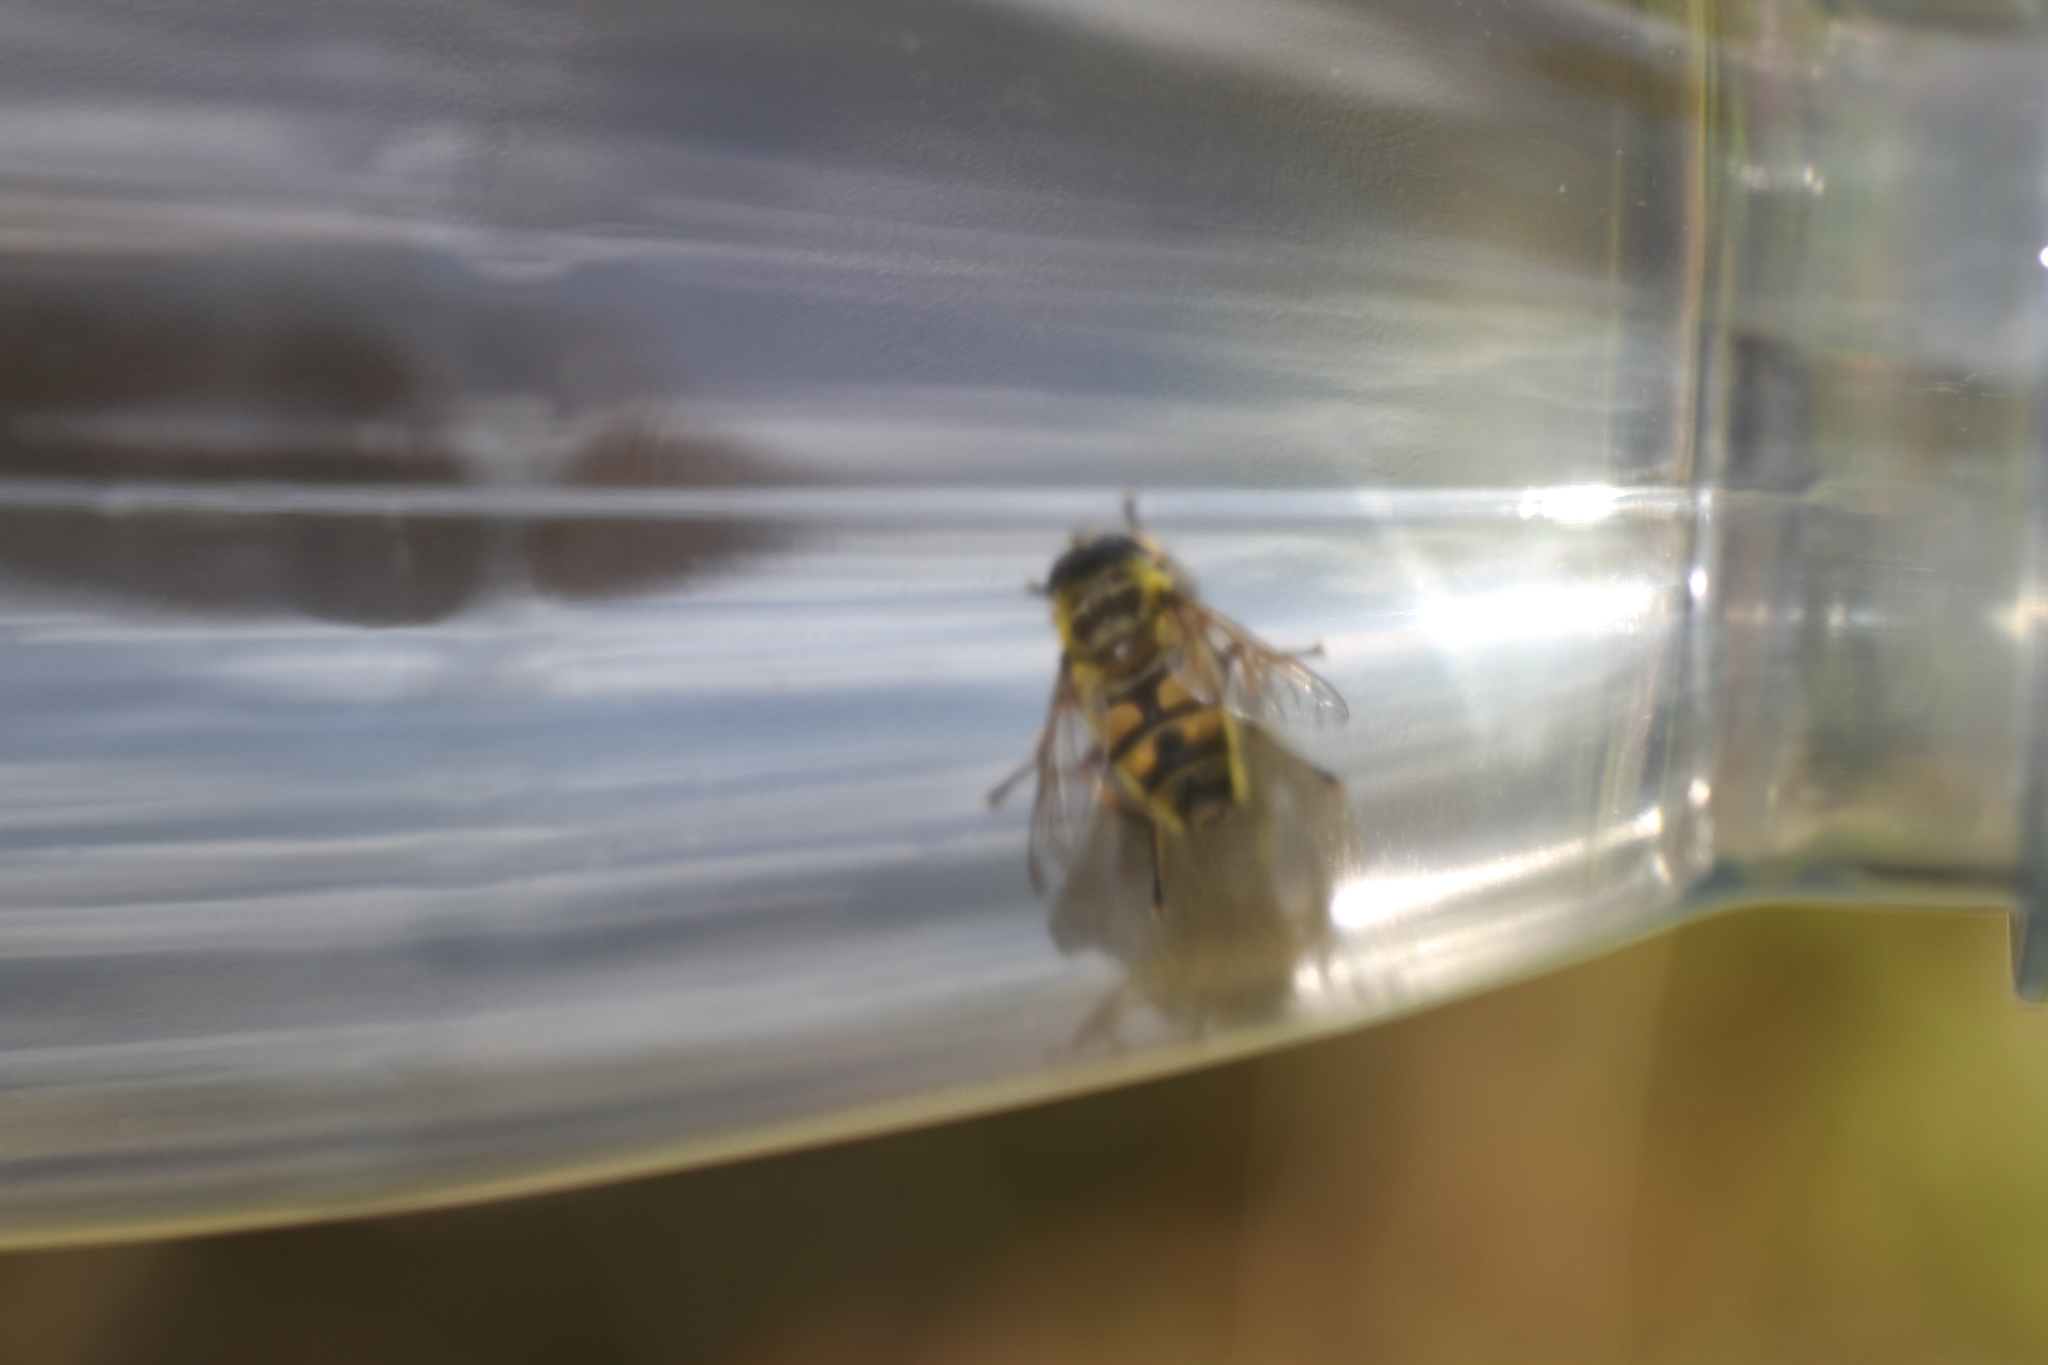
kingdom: Animalia
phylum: Arthropoda
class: Insecta
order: Diptera
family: Syrphidae
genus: Myathropa
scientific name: Myathropa florea
